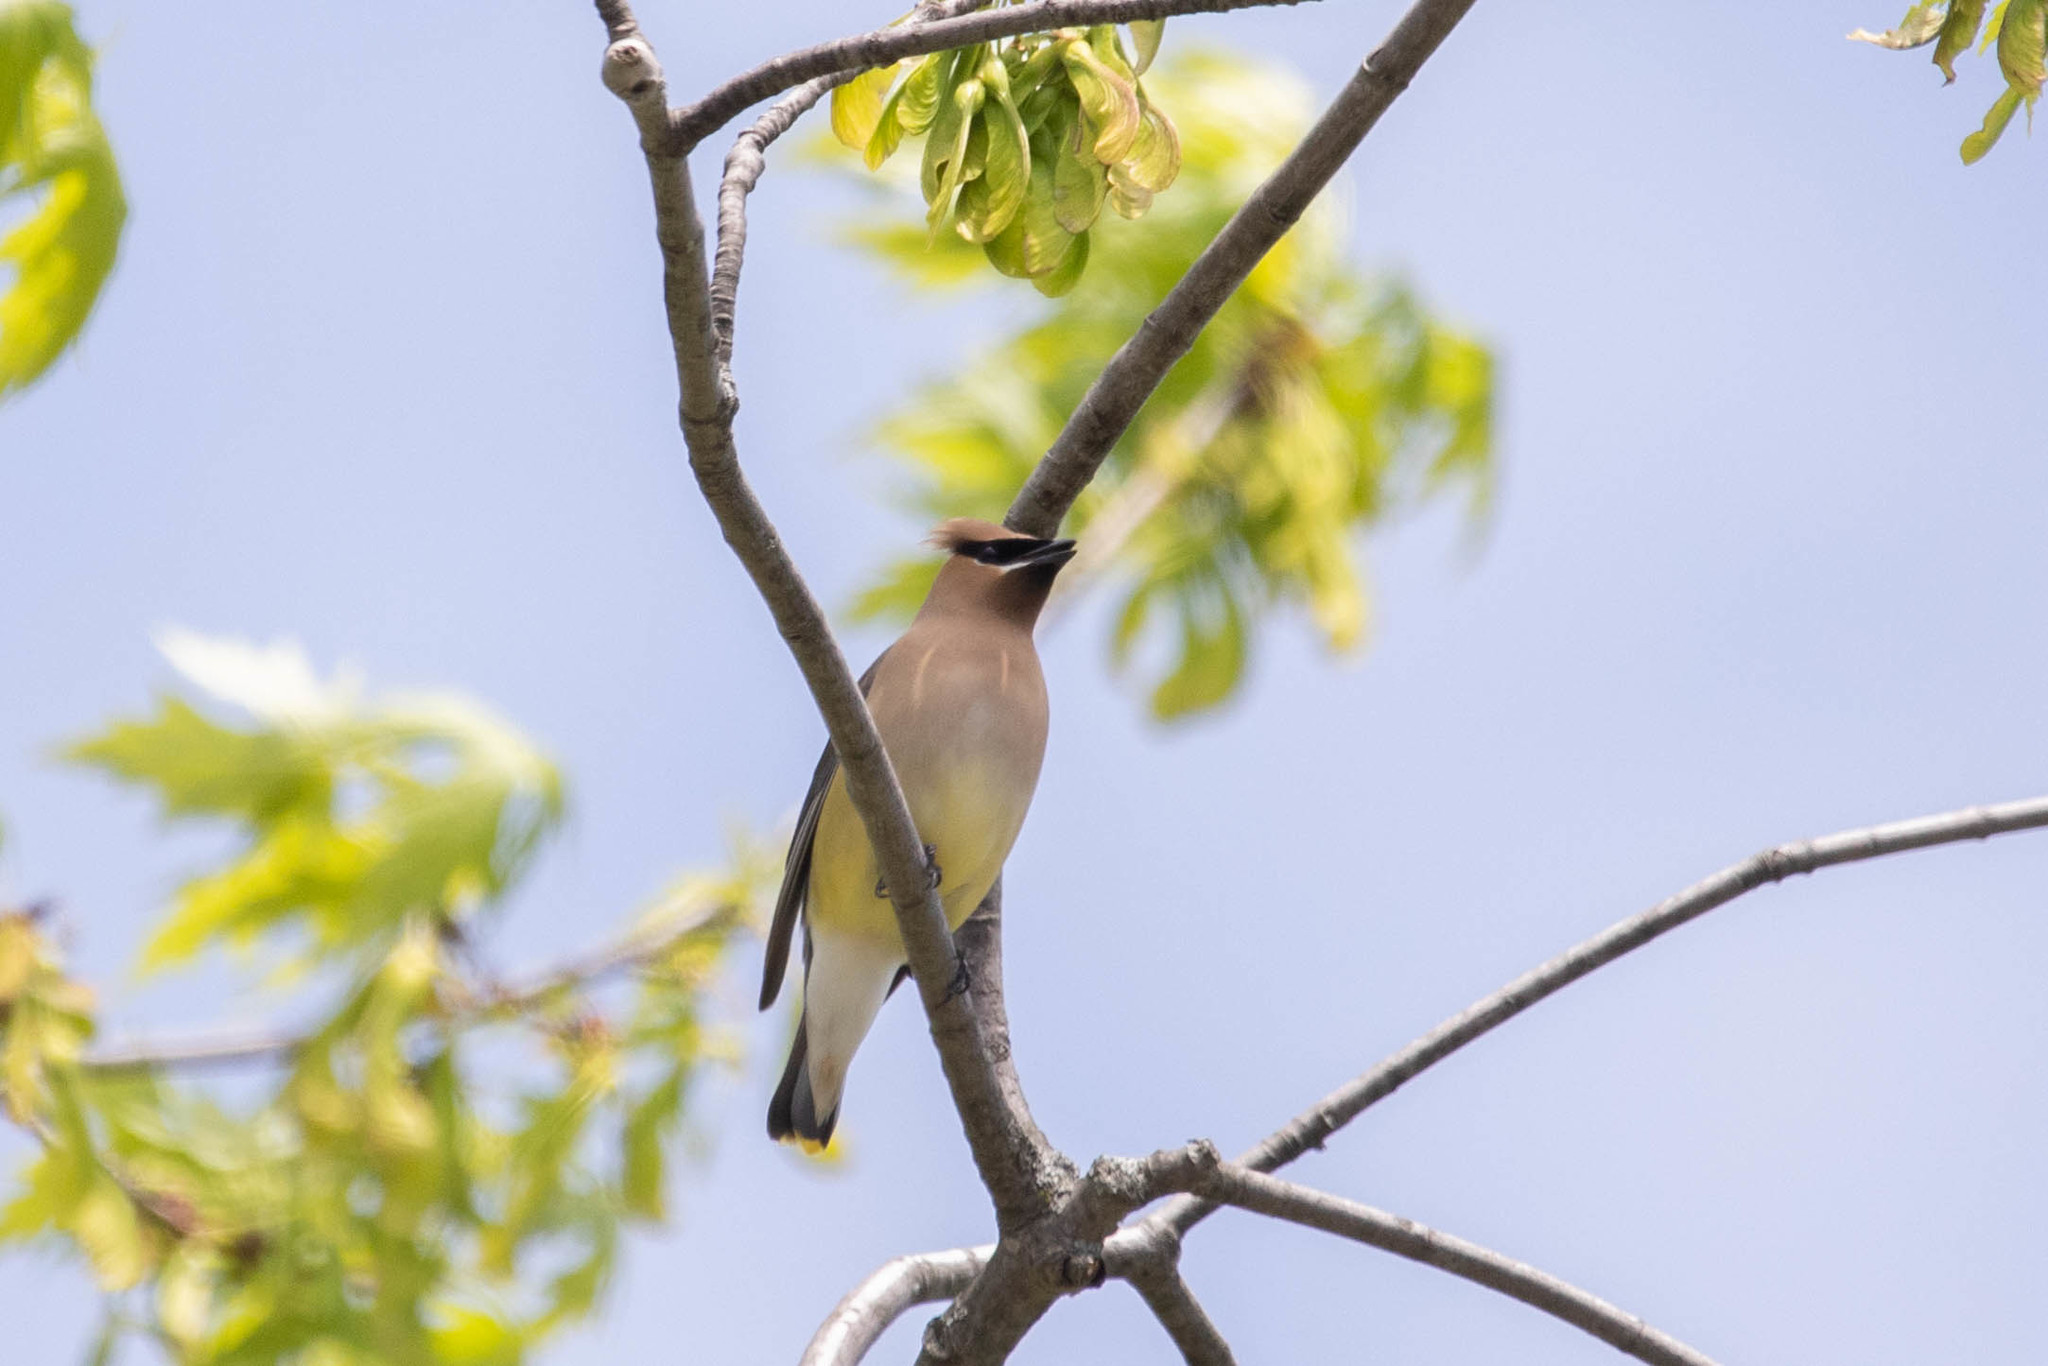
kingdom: Animalia
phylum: Chordata
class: Aves
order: Passeriformes
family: Bombycillidae
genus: Bombycilla
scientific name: Bombycilla cedrorum
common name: Cedar waxwing
